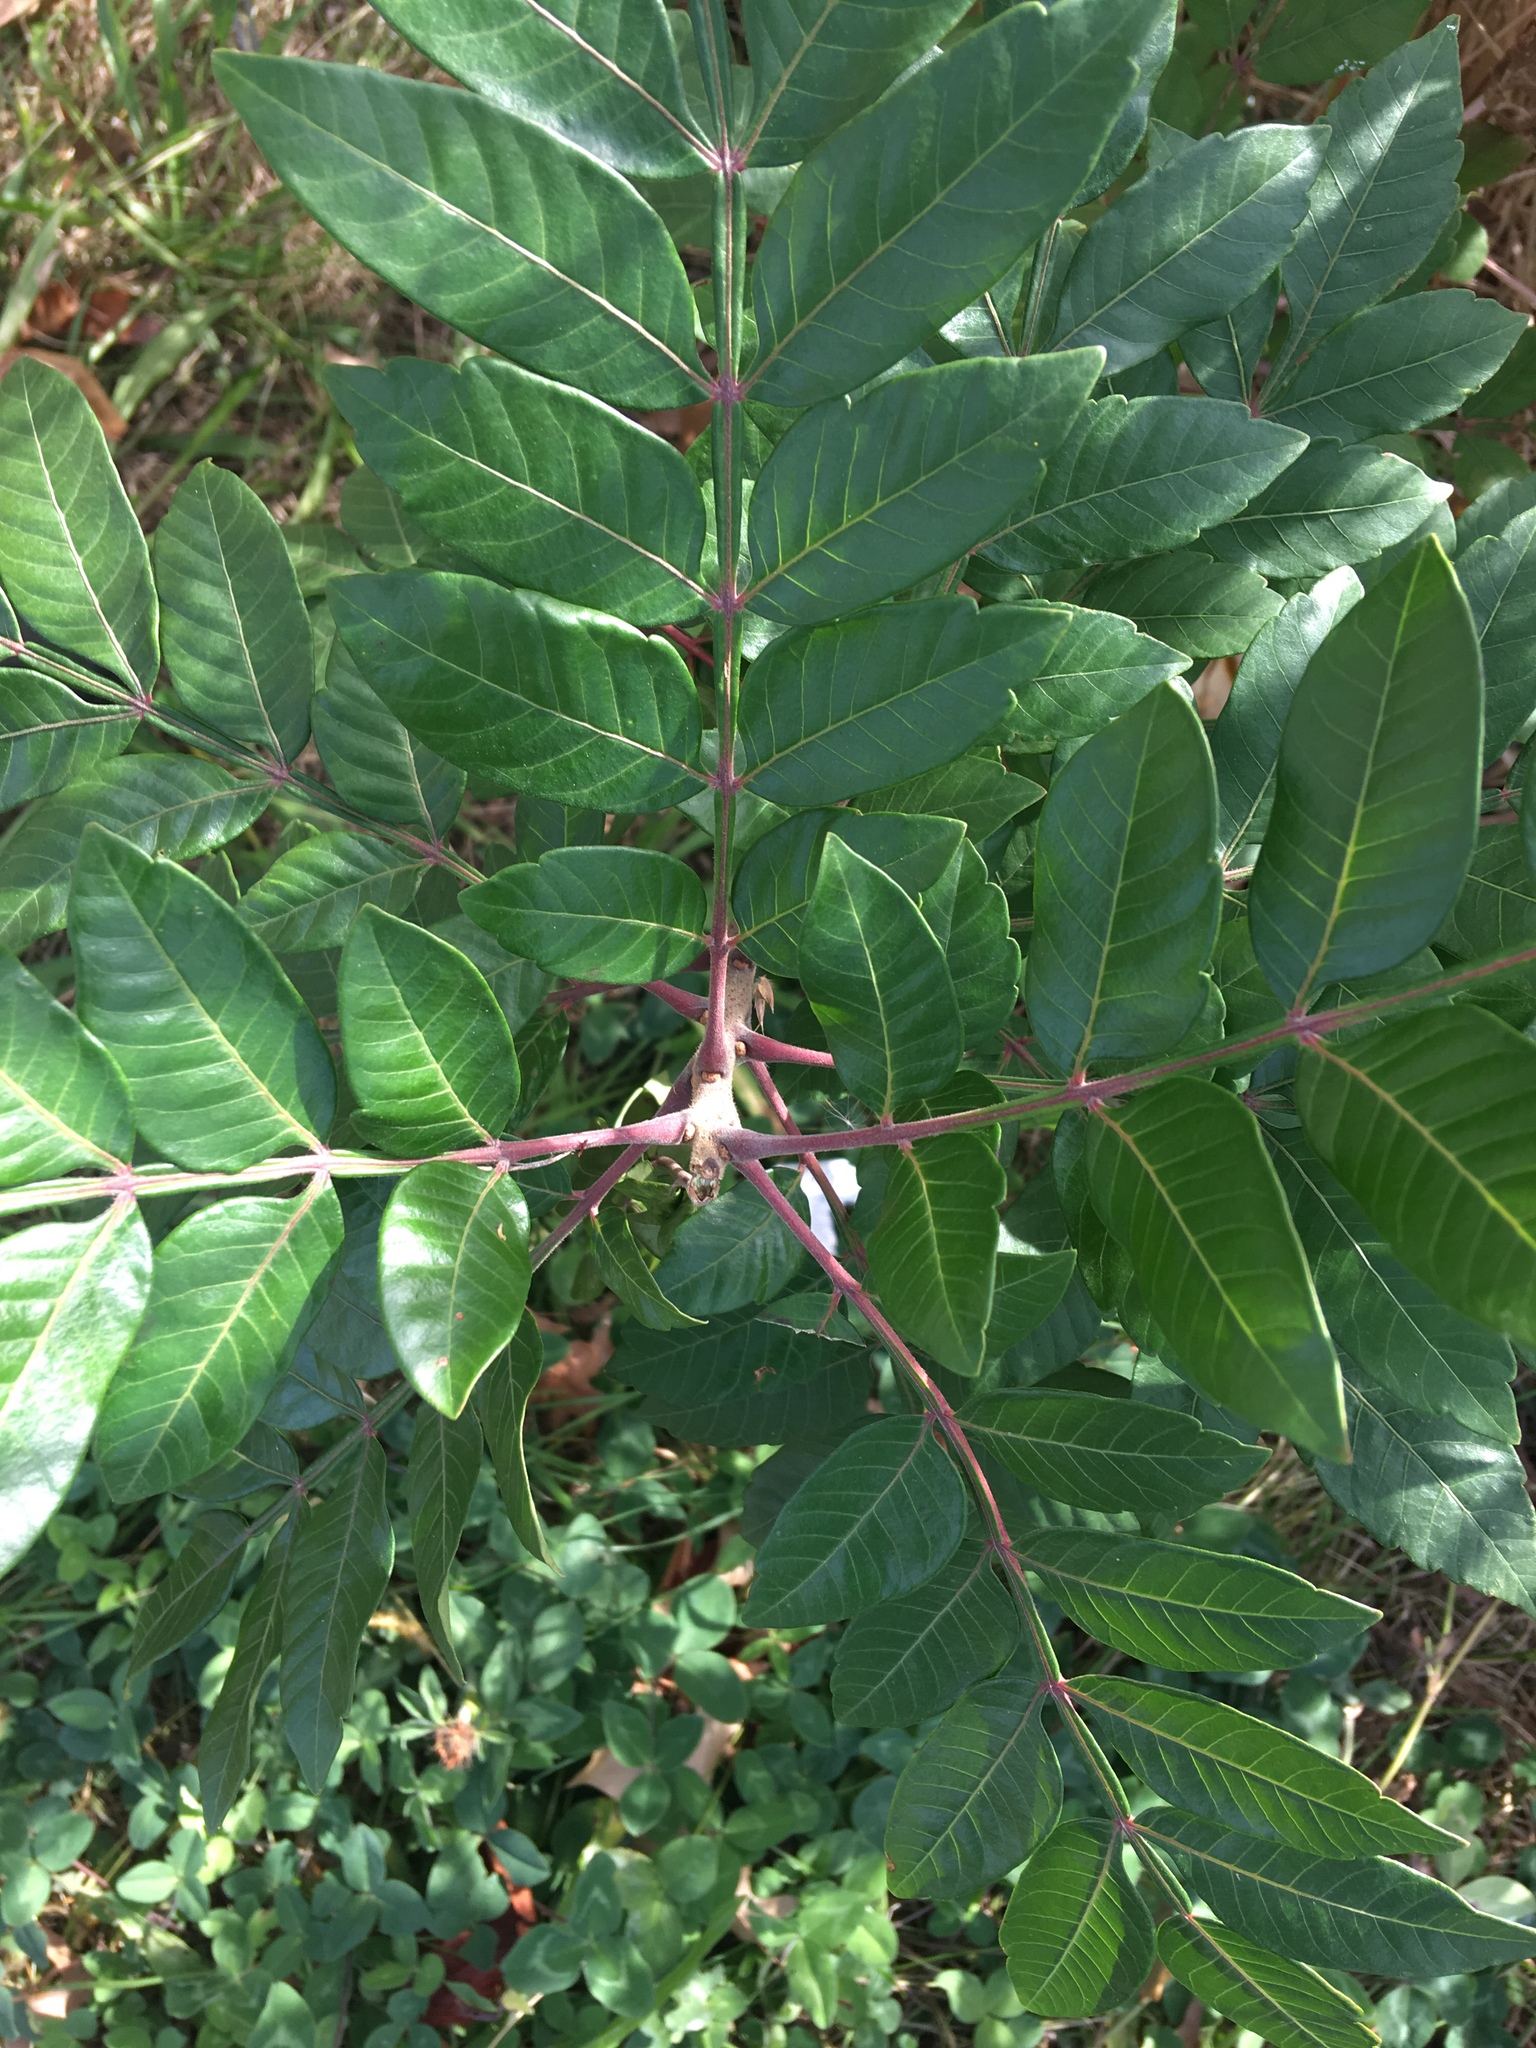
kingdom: Plantae
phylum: Tracheophyta
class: Magnoliopsida
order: Sapindales
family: Anacardiaceae
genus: Rhus
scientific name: Rhus copallina
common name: Shining sumac
